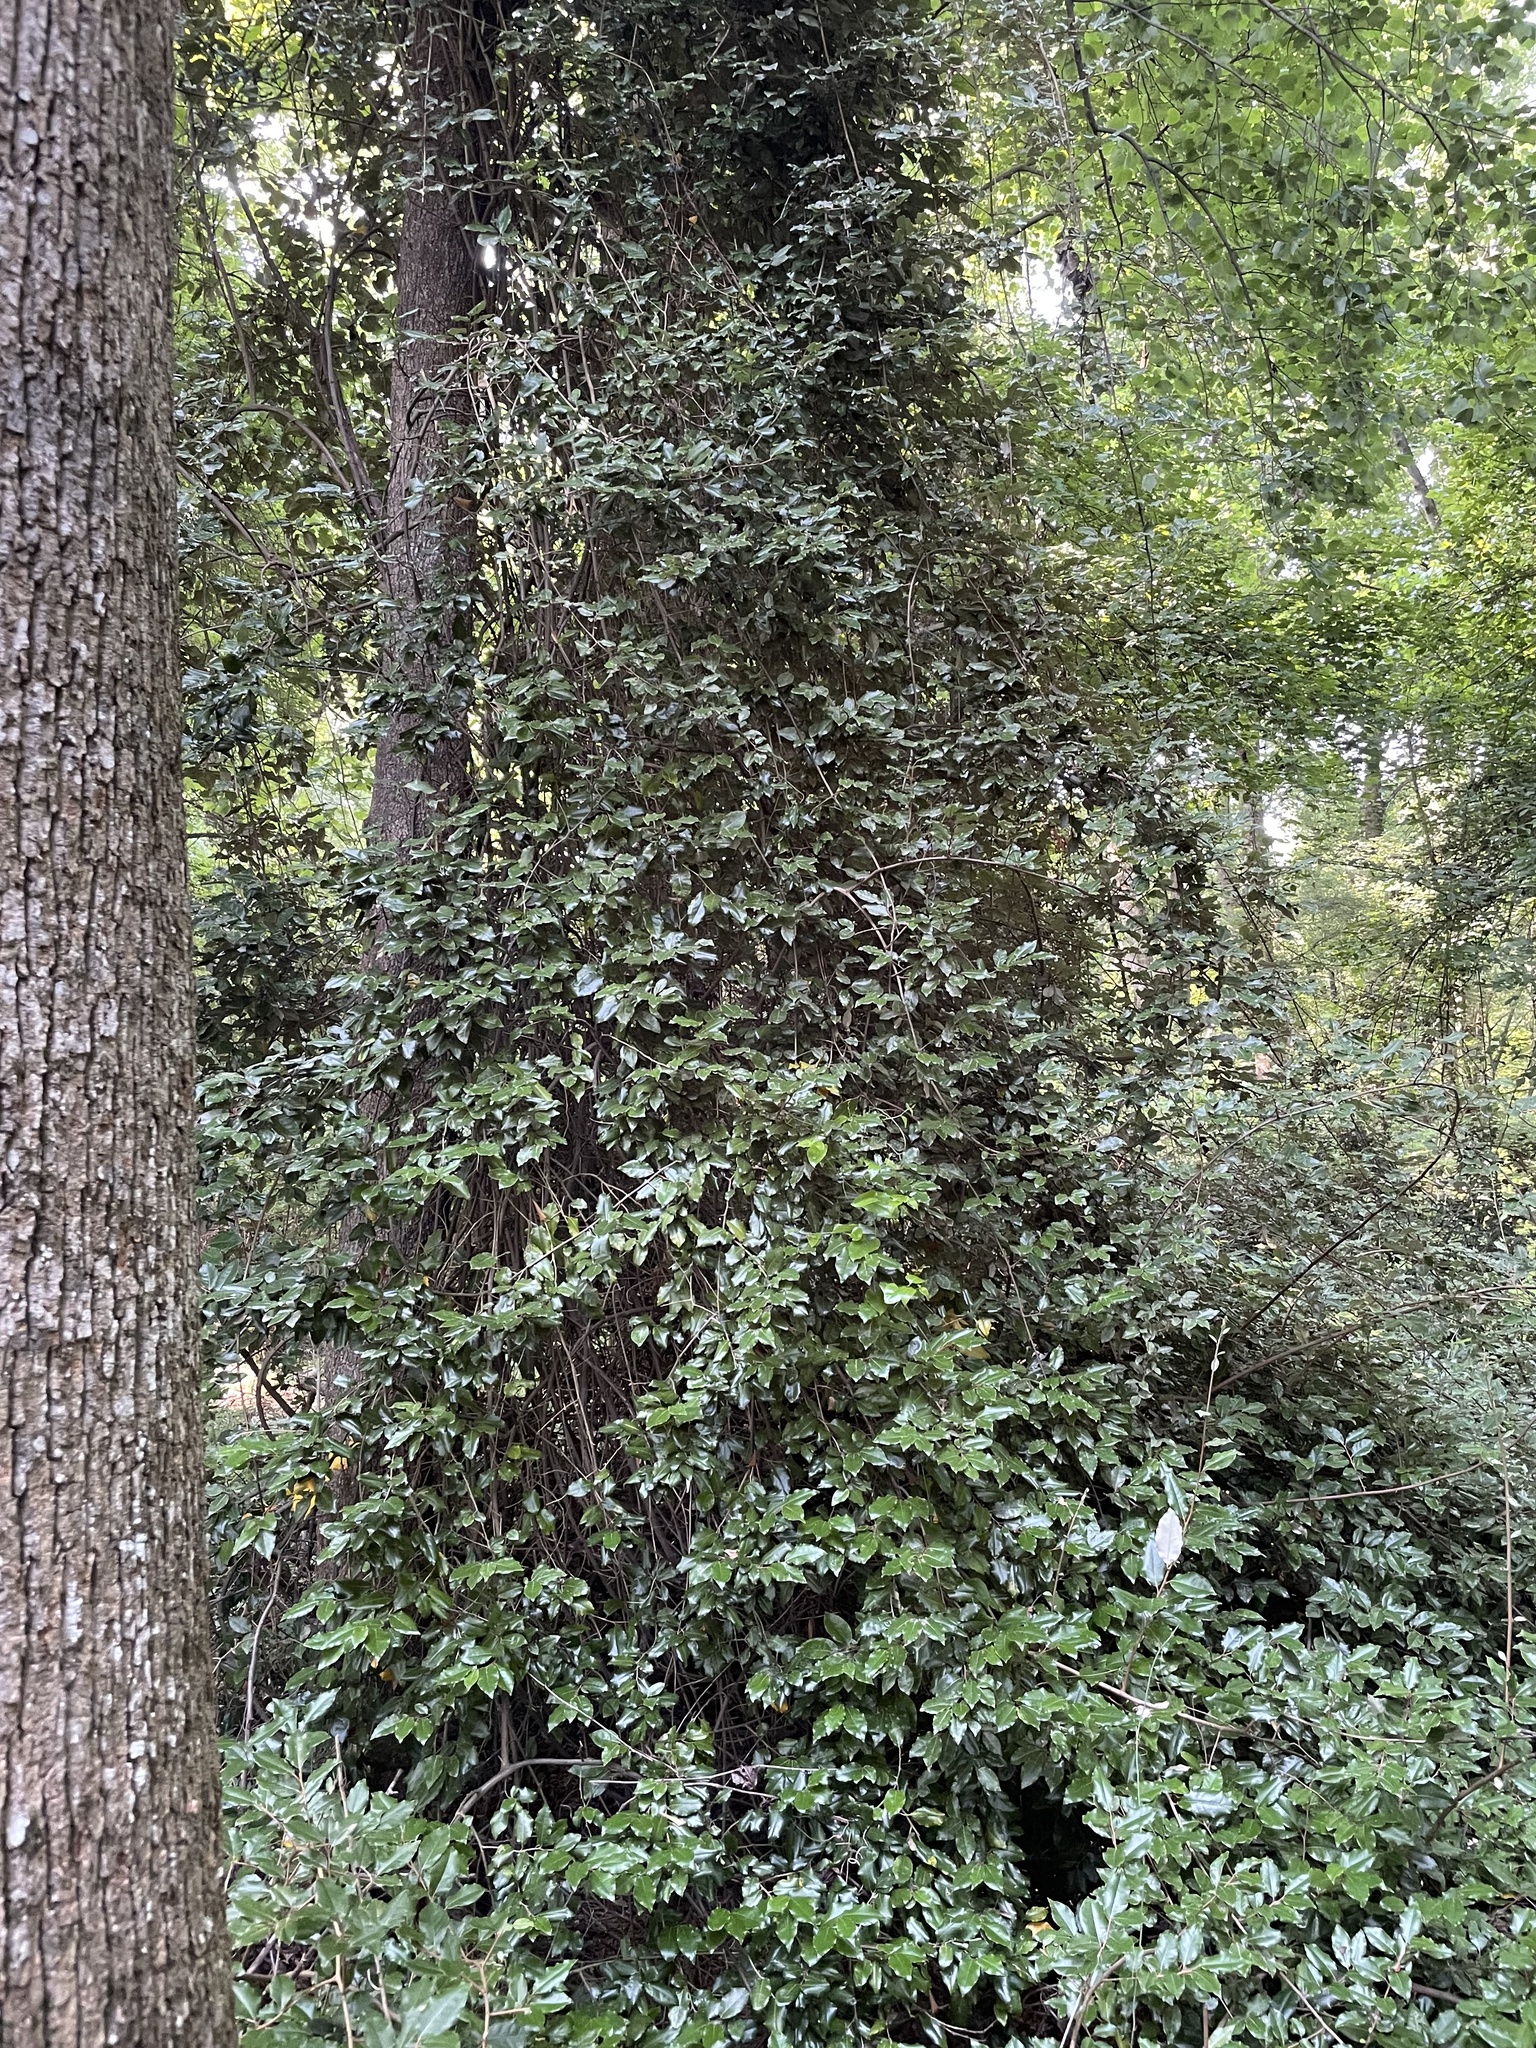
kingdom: Plantae
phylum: Tracheophyta
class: Magnoliopsida
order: Rosales
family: Elaeagnaceae
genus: Elaeagnus
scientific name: Elaeagnus pungens
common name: Spiny oleaster
